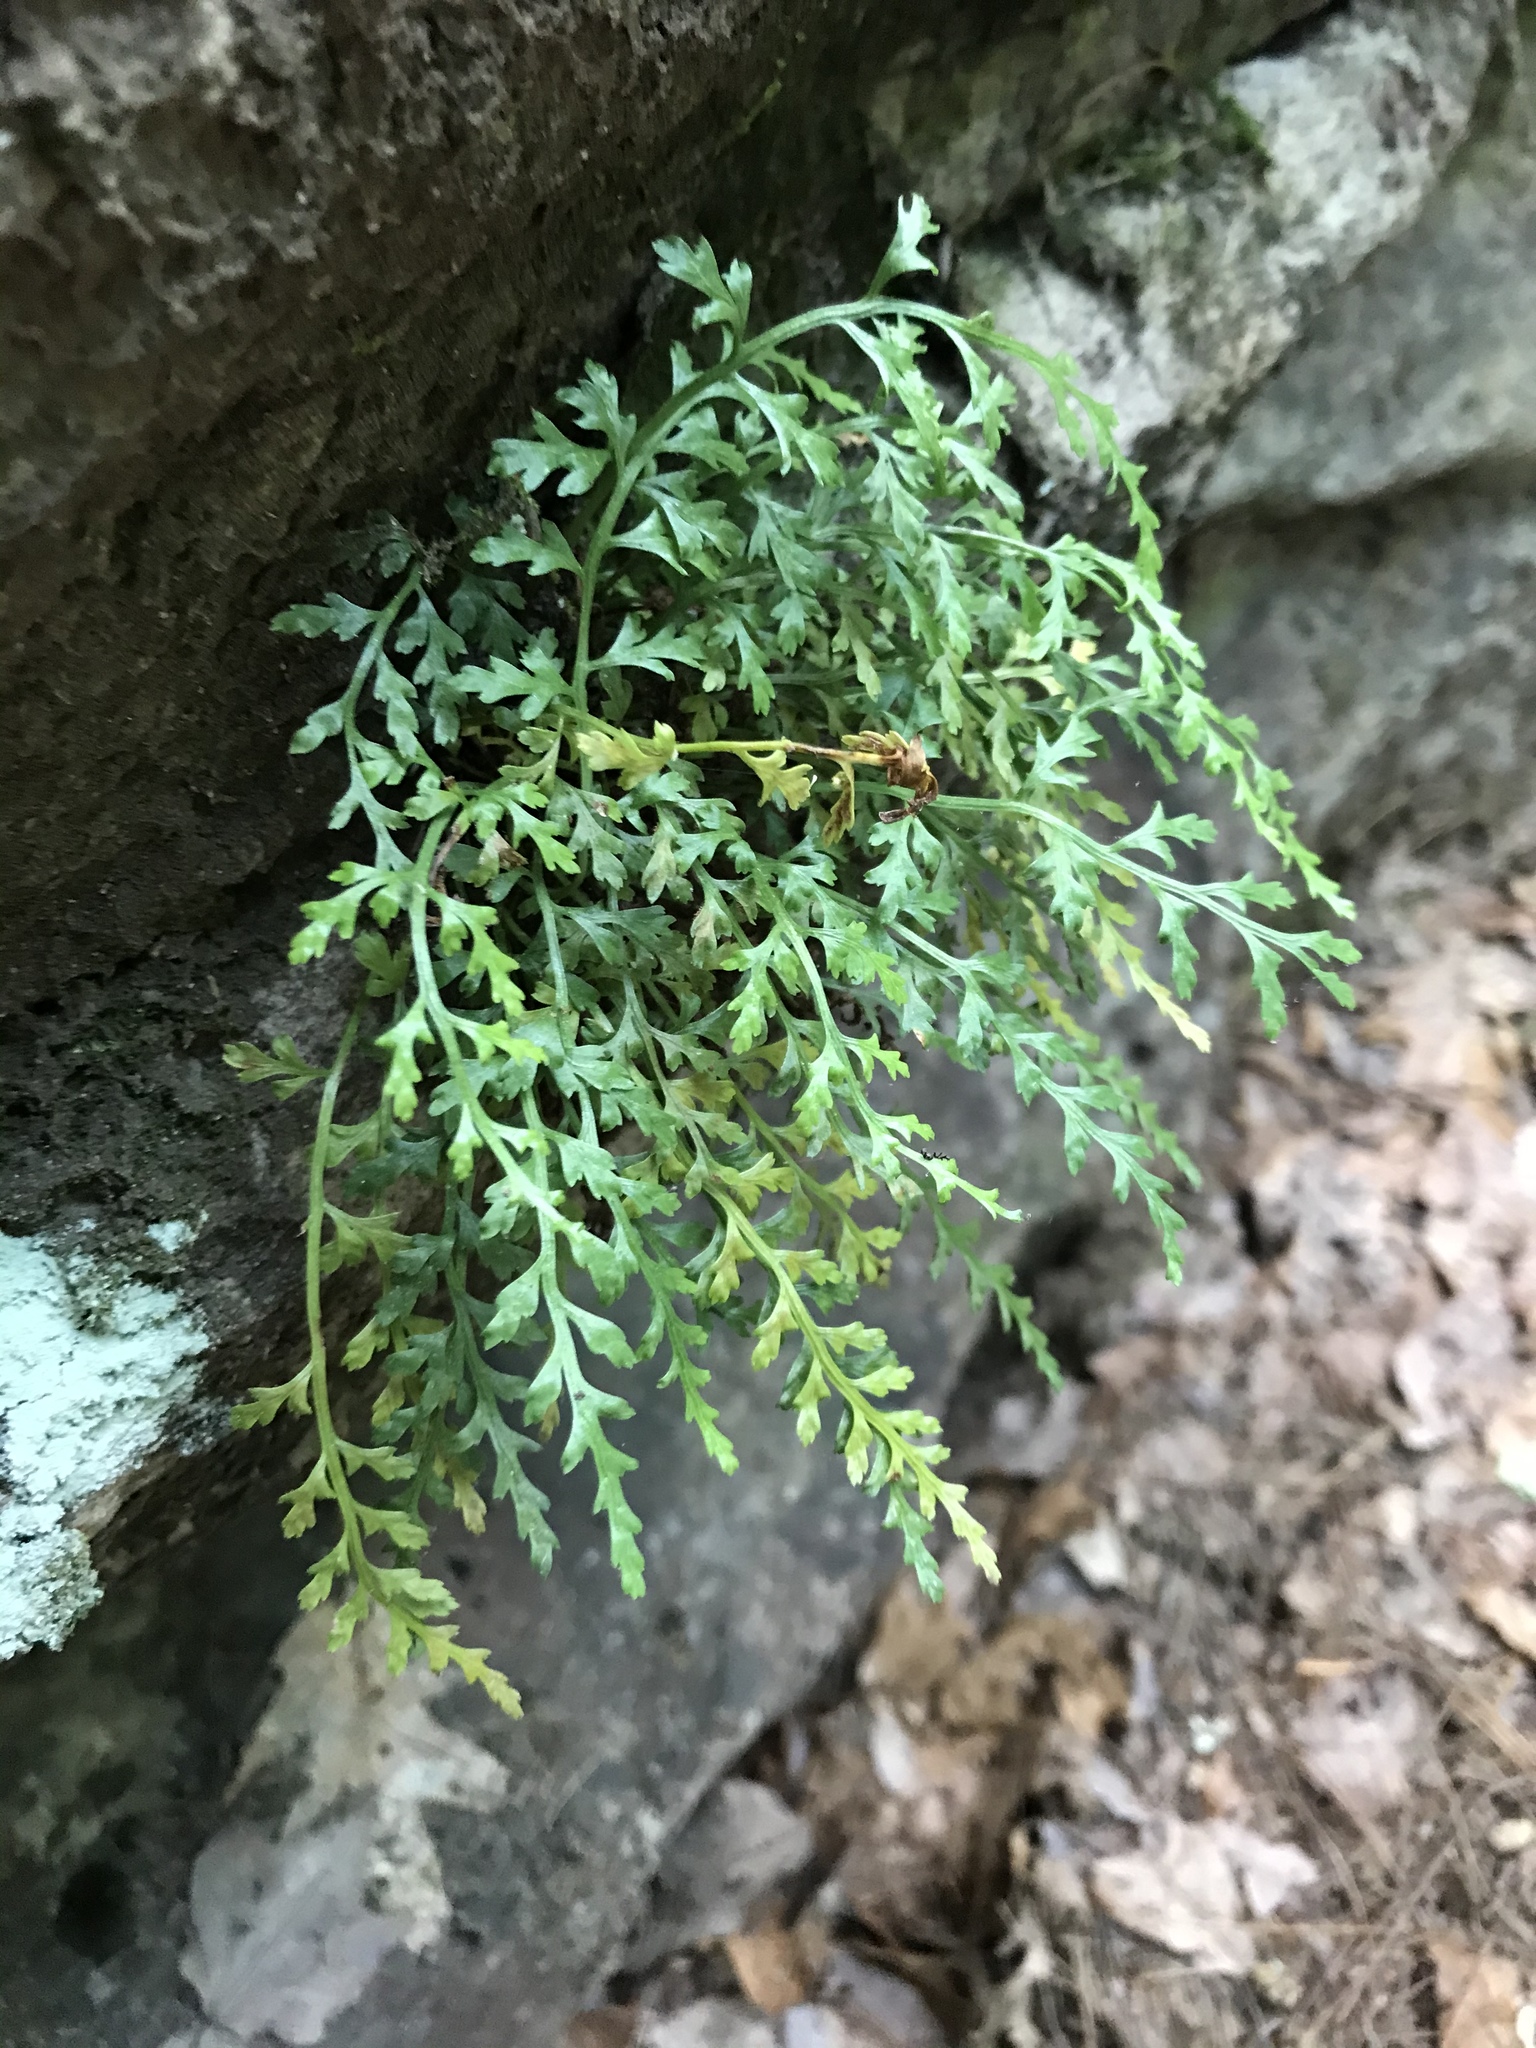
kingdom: Plantae
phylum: Tracheophyta
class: Polypodiopsida
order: Polypodiales
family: Aspleniaceae
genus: Asplenium
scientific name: Asplenium montanum
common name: Mountain spleenwort
